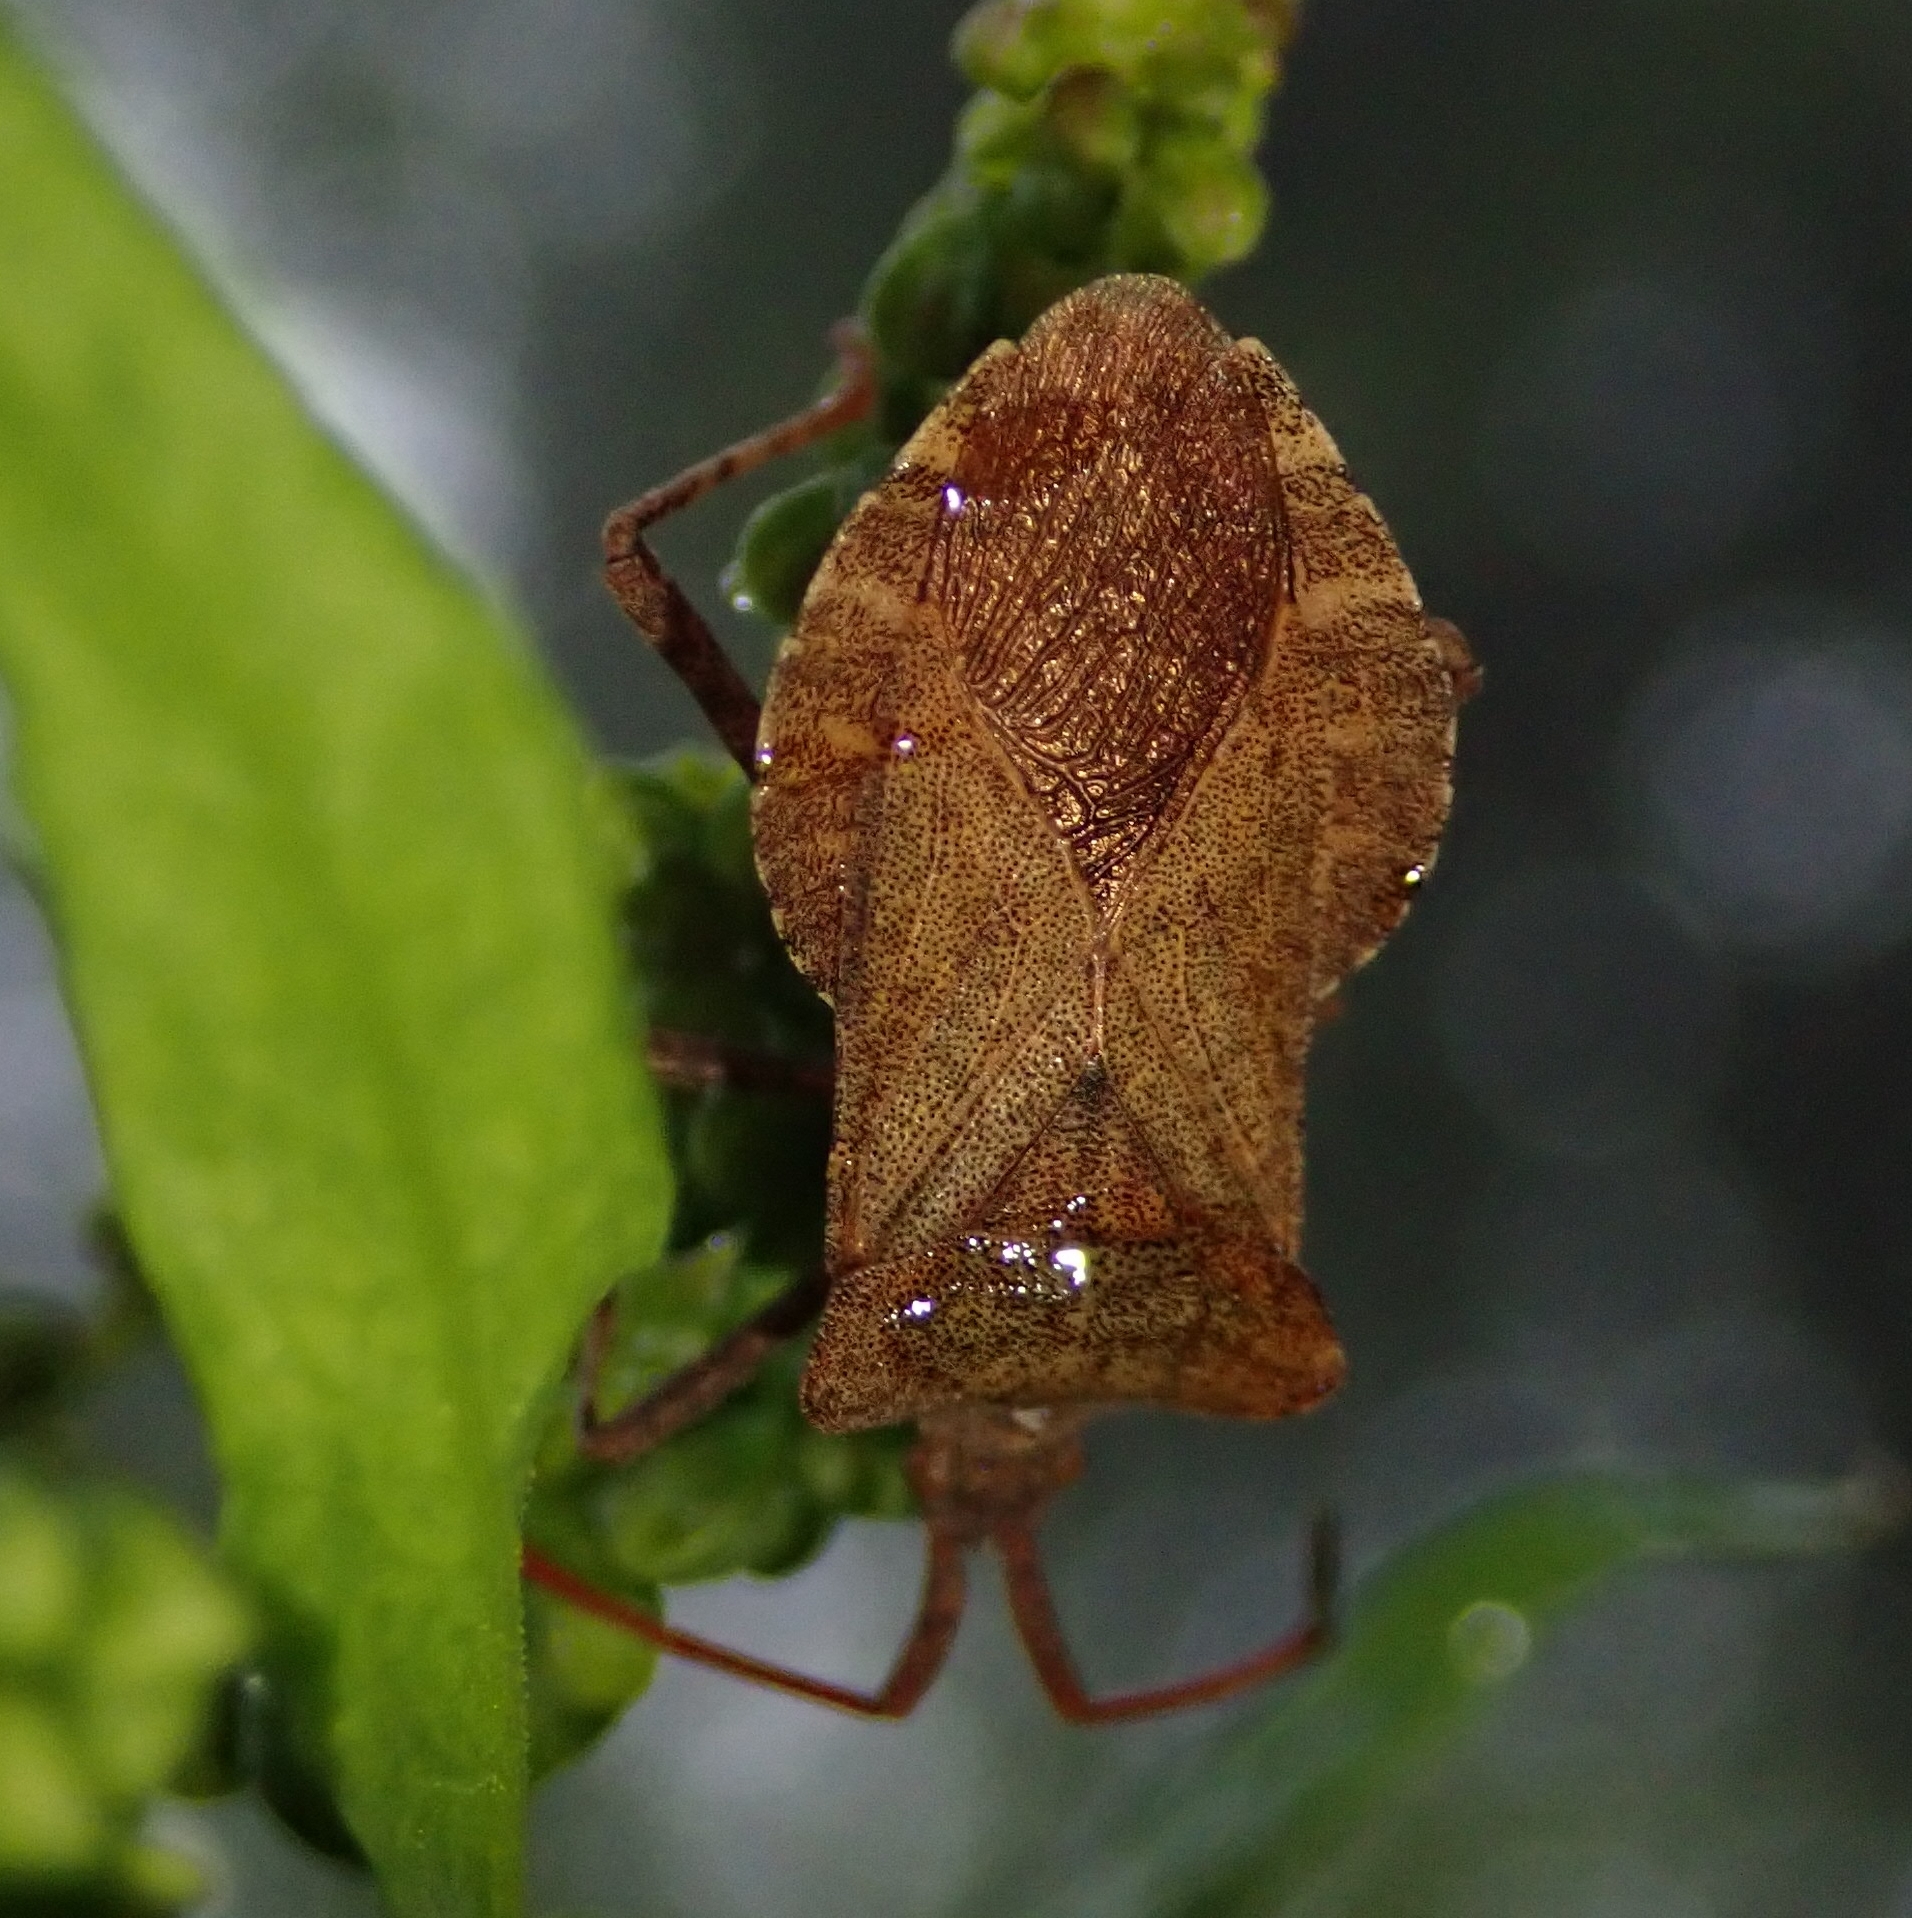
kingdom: Animalia
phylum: Arthropoda
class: Insecta
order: Hemiptera
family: Coreidae
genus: Coreus
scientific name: Coreus marginatus
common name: Dock bug
